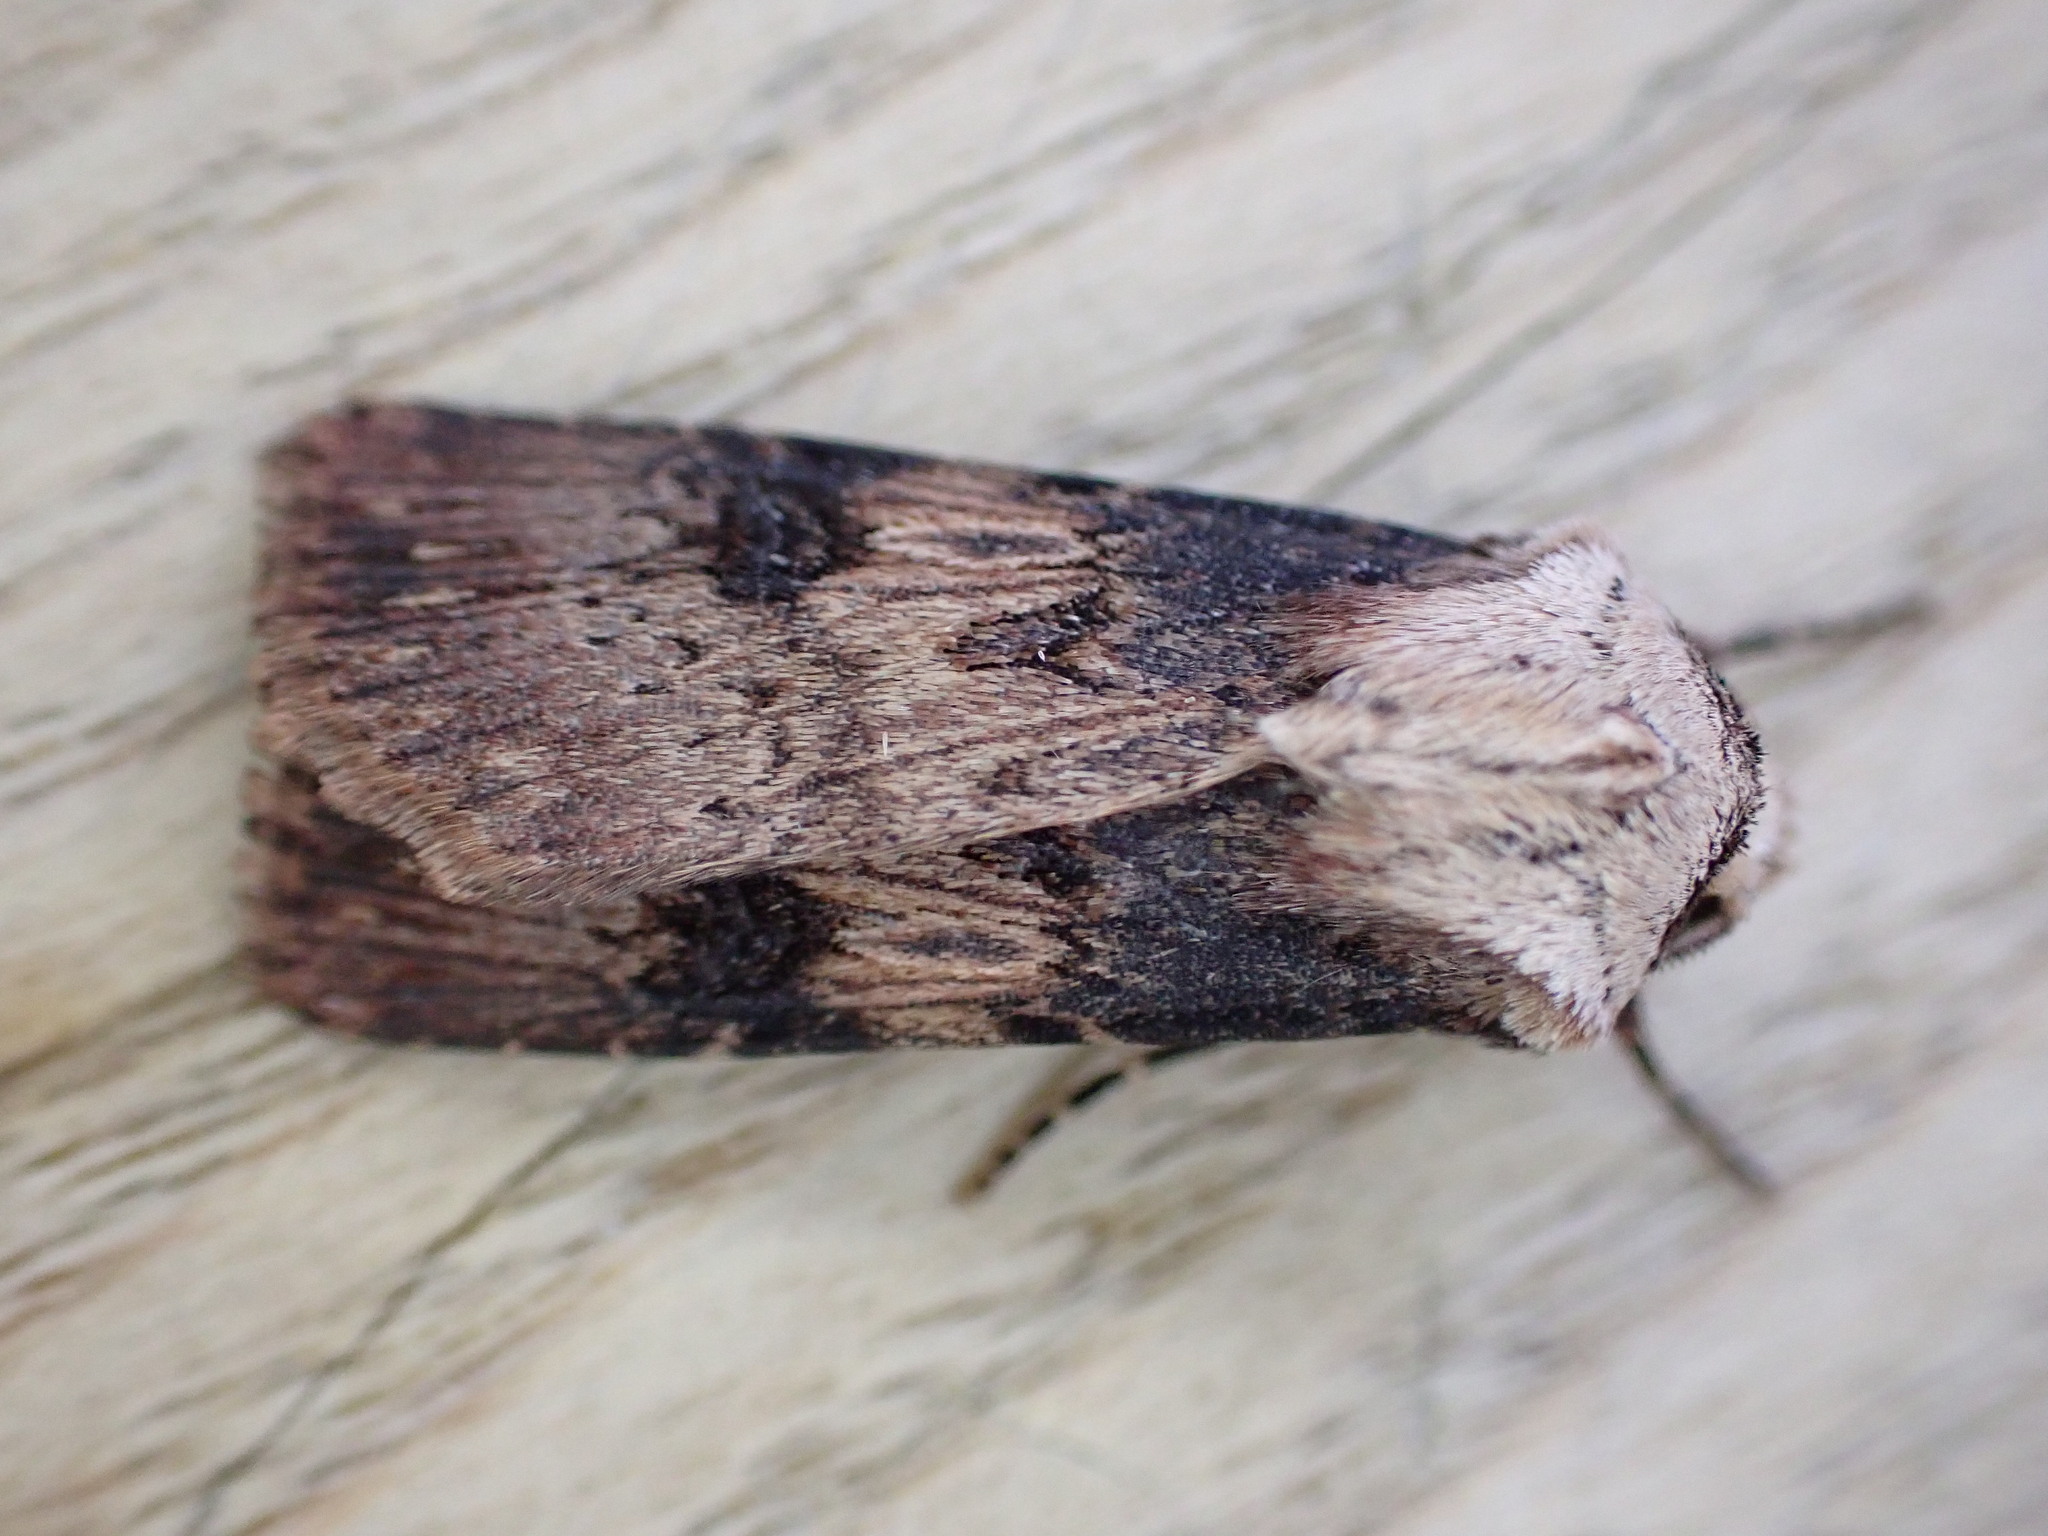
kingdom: Animalia
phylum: Arthropoda
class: Insecta
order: Lepidoptera
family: Noctuidae
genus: Agrotis
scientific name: Agrotis puta
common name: Shuttle-shaped dart
